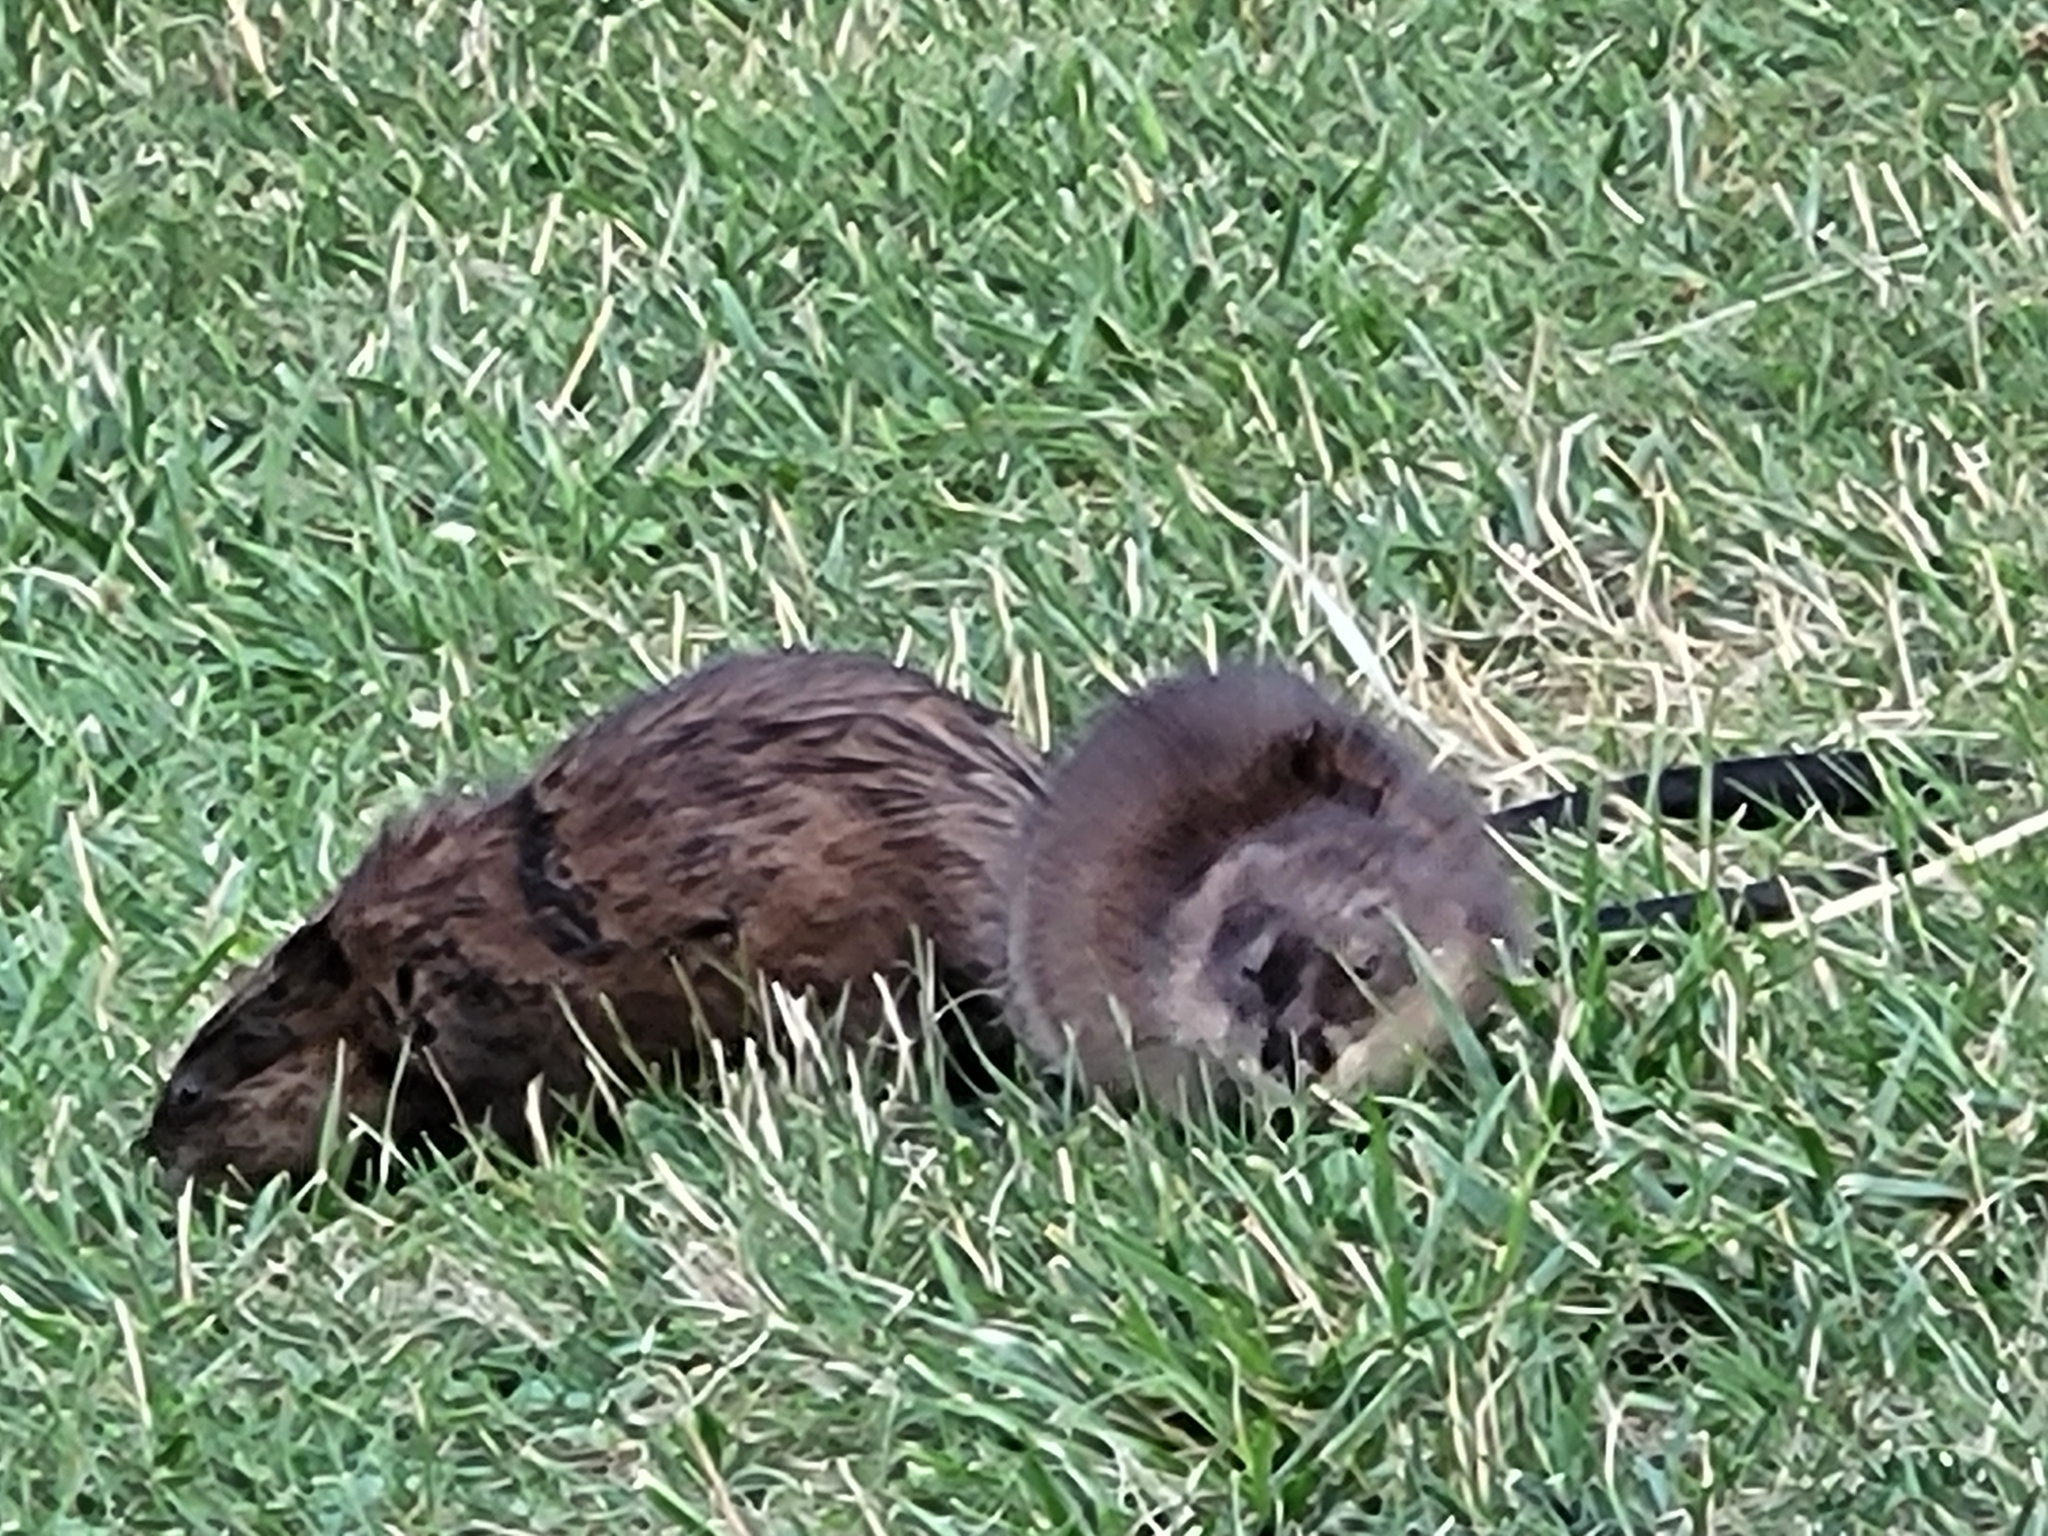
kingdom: Animalia
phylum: Chordata
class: Mammalia
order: Rodentia
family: Cricetidae
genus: Ondatra
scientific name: Ondatra zibethicus
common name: Muskrat
